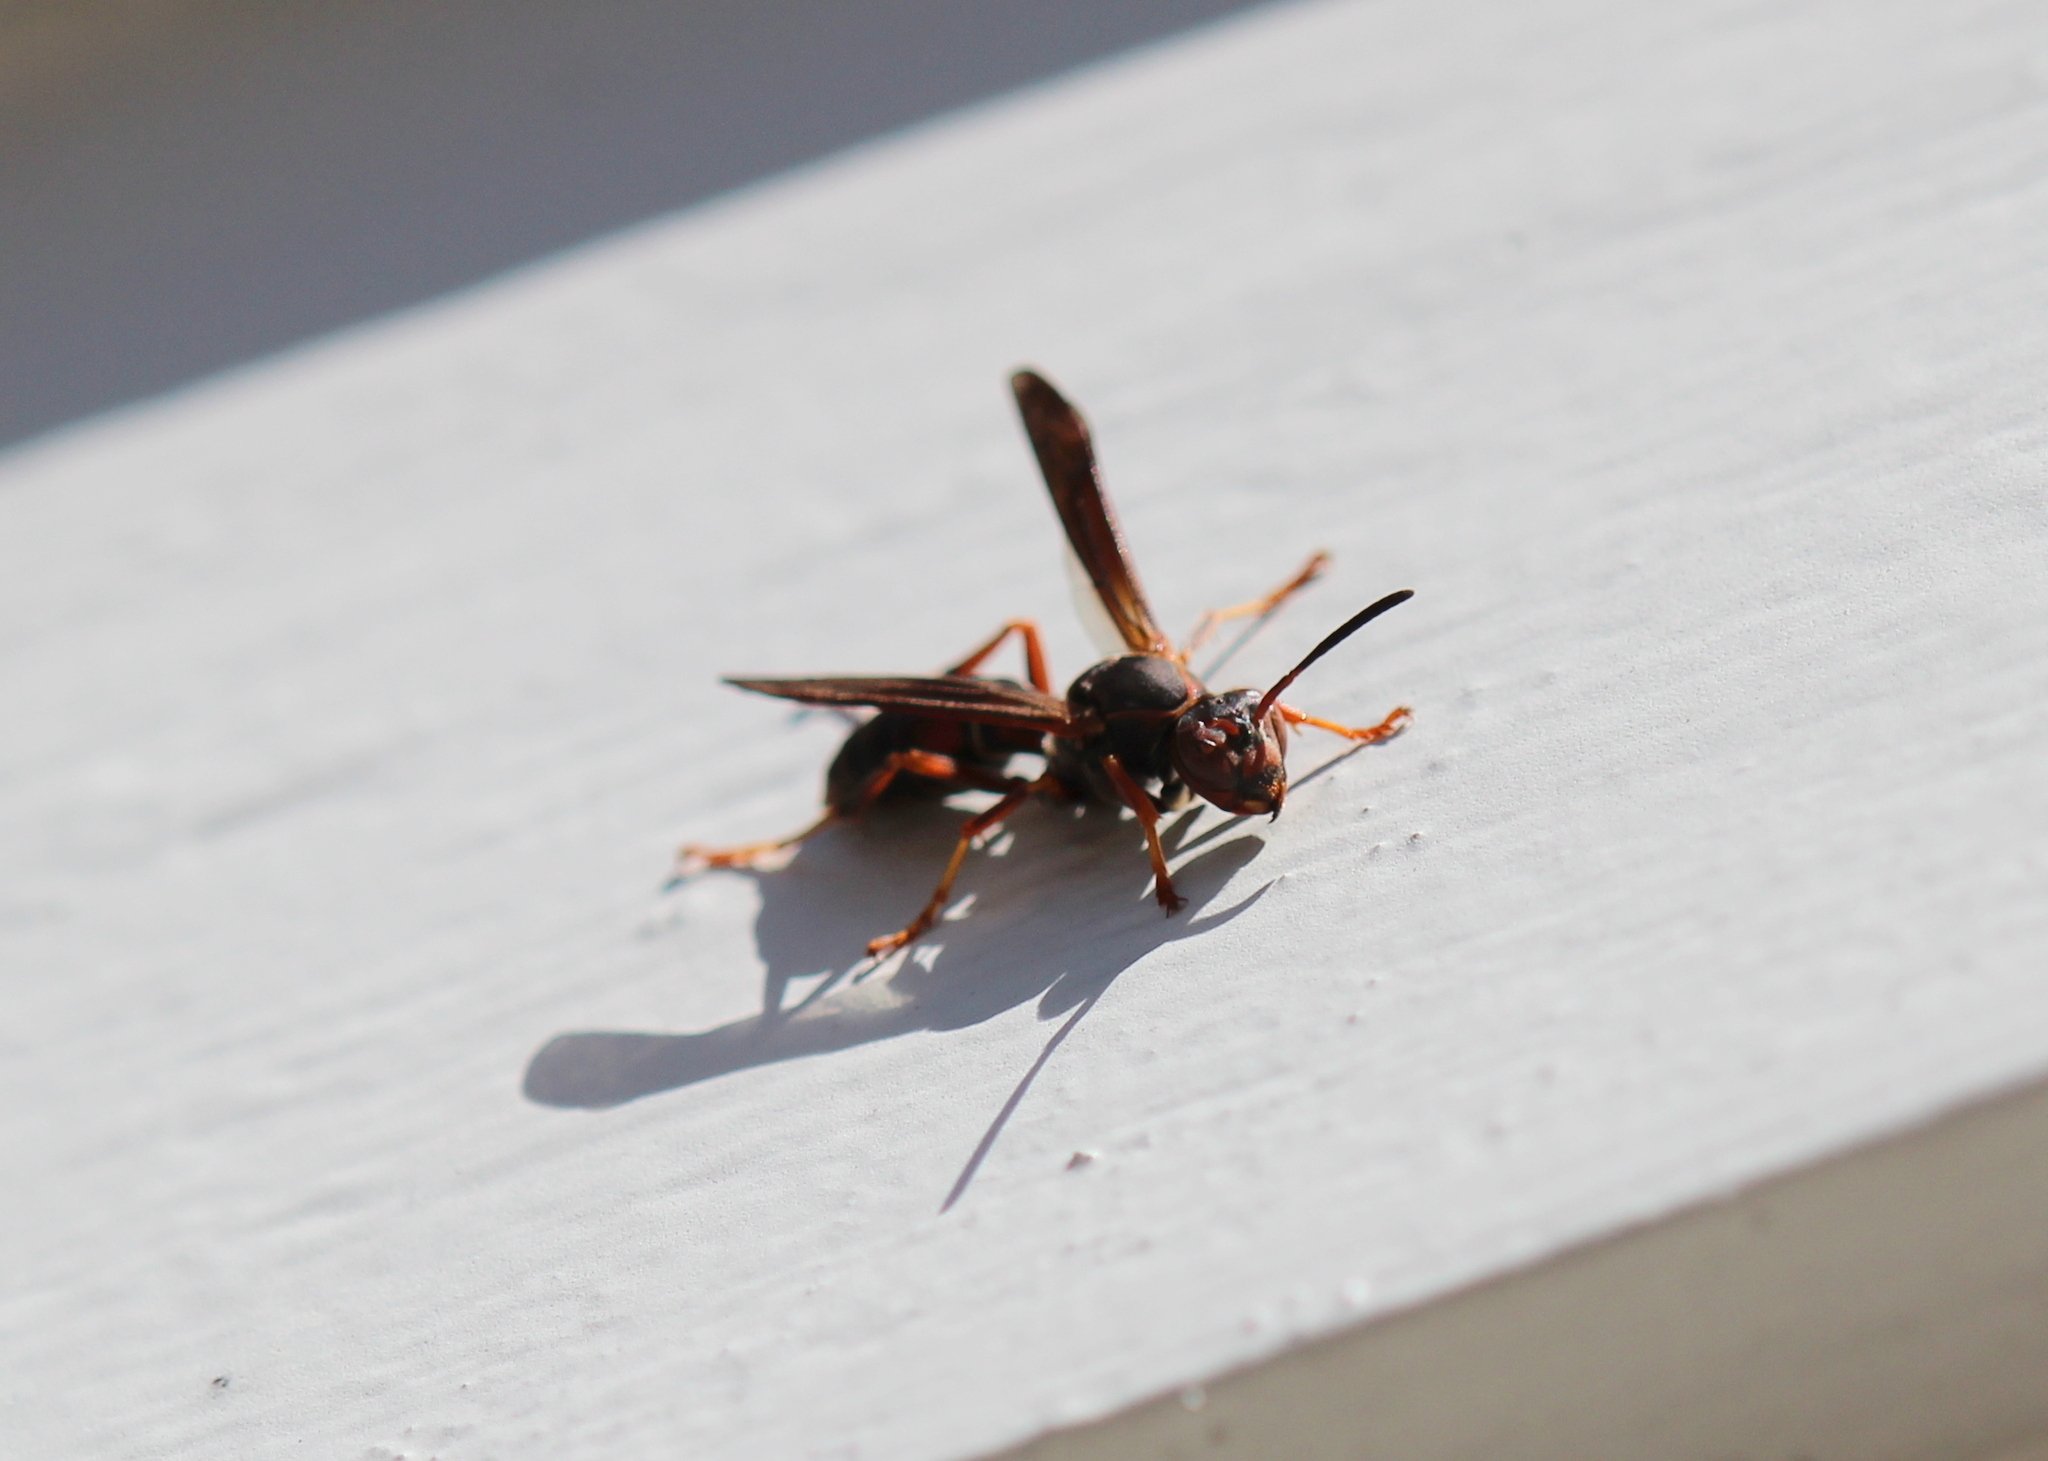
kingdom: Animalia
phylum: Arthropoda
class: Insecta
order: Hymenoptera
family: Eumenidae
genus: Polistes
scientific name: Polistes fuscatus
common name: Dark paper wasp
